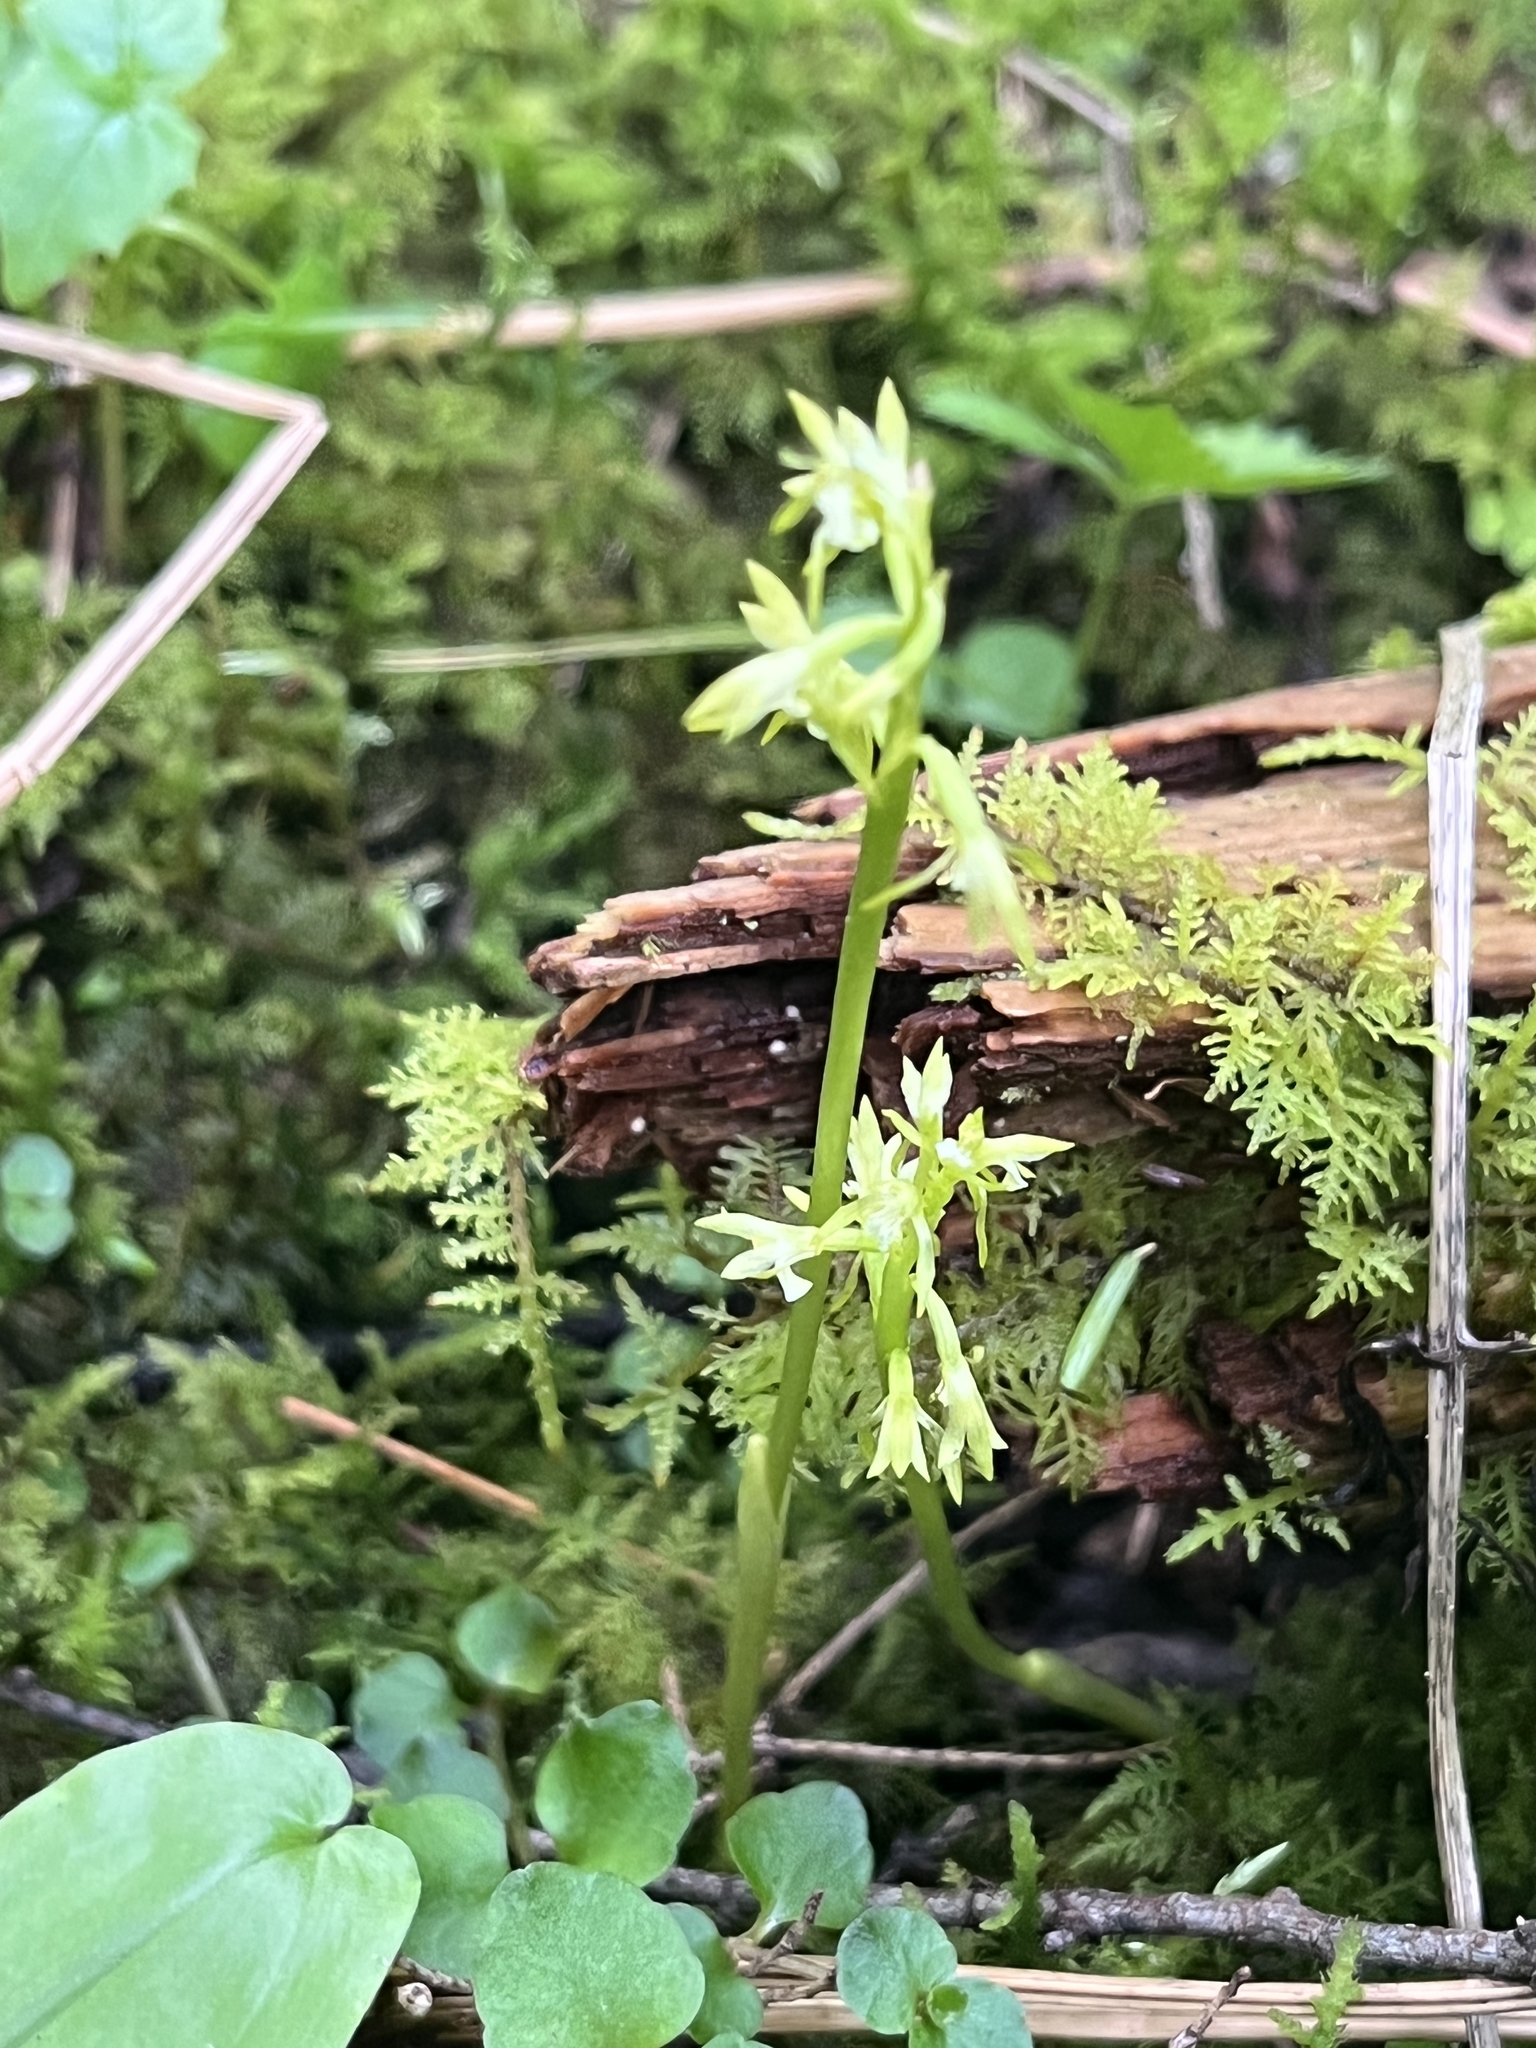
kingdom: Plantae
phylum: Tracheophyta
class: Liliopsida
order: Asparagales
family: Orchidaceae
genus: Corallorhiza
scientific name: Corallorhiza trifida
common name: Yellow coralroot
